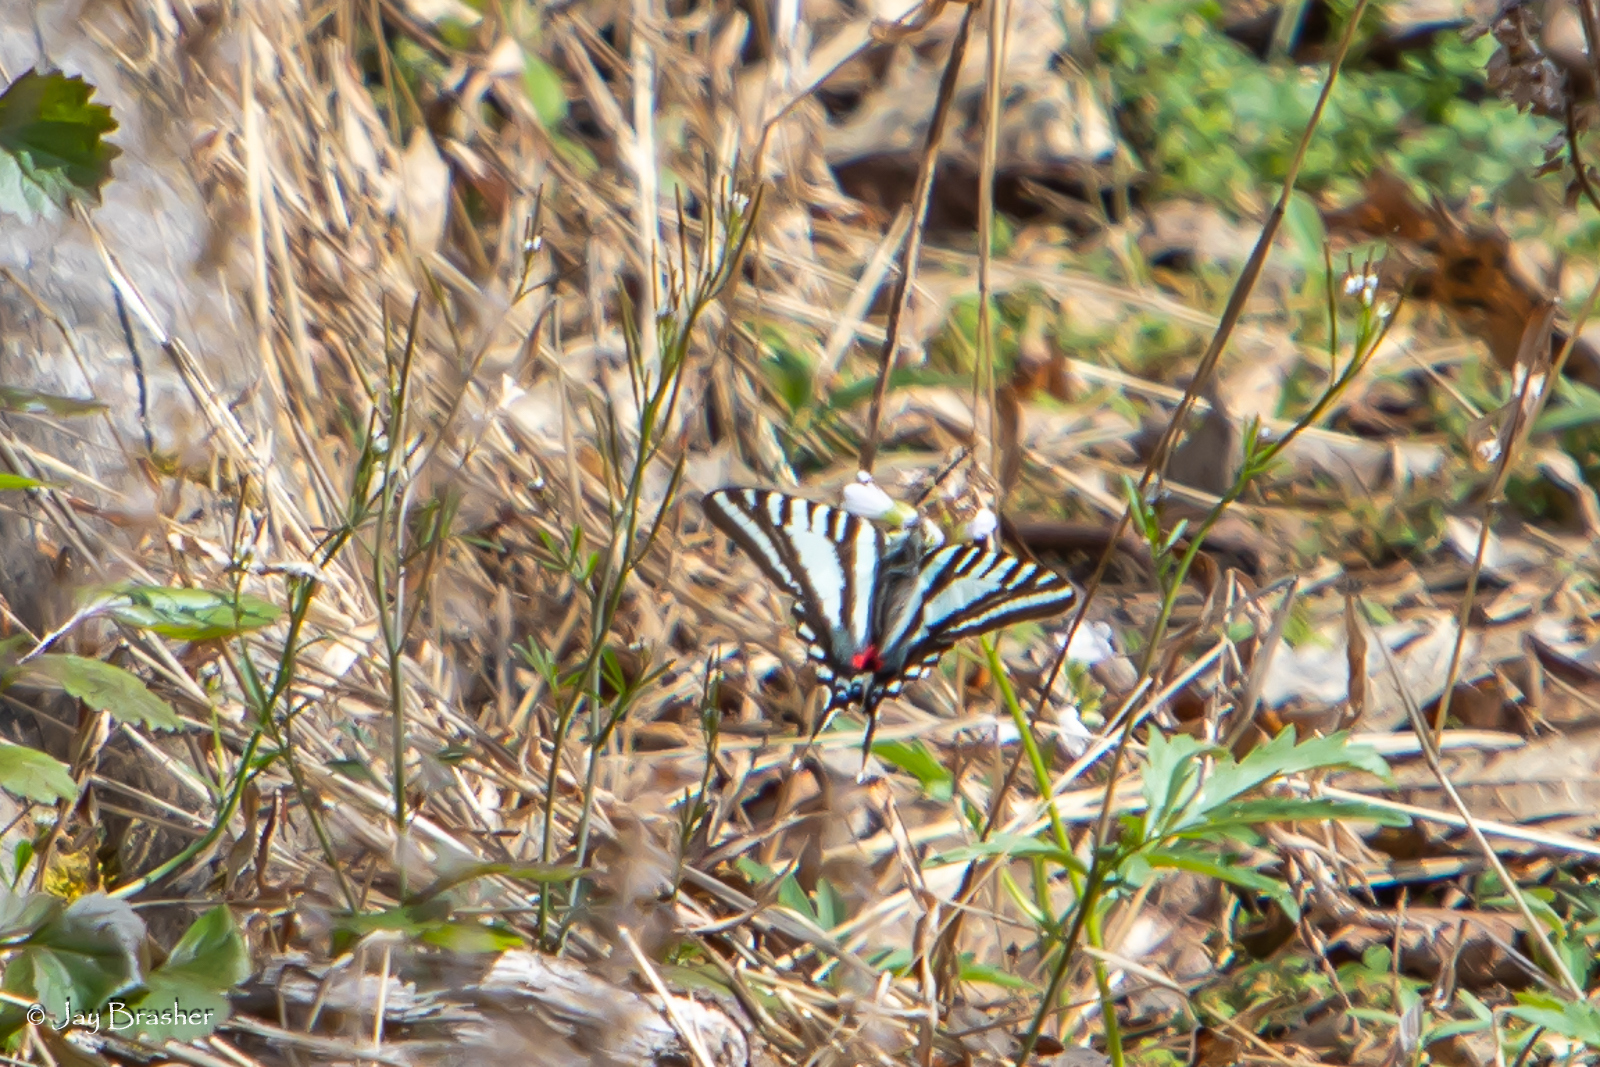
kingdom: Animalia
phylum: Arthropoda
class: Insecta
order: Lepidoptera
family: Papilionidae
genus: Protographium
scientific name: Protographium marcellus
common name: Zebra swallowtail
